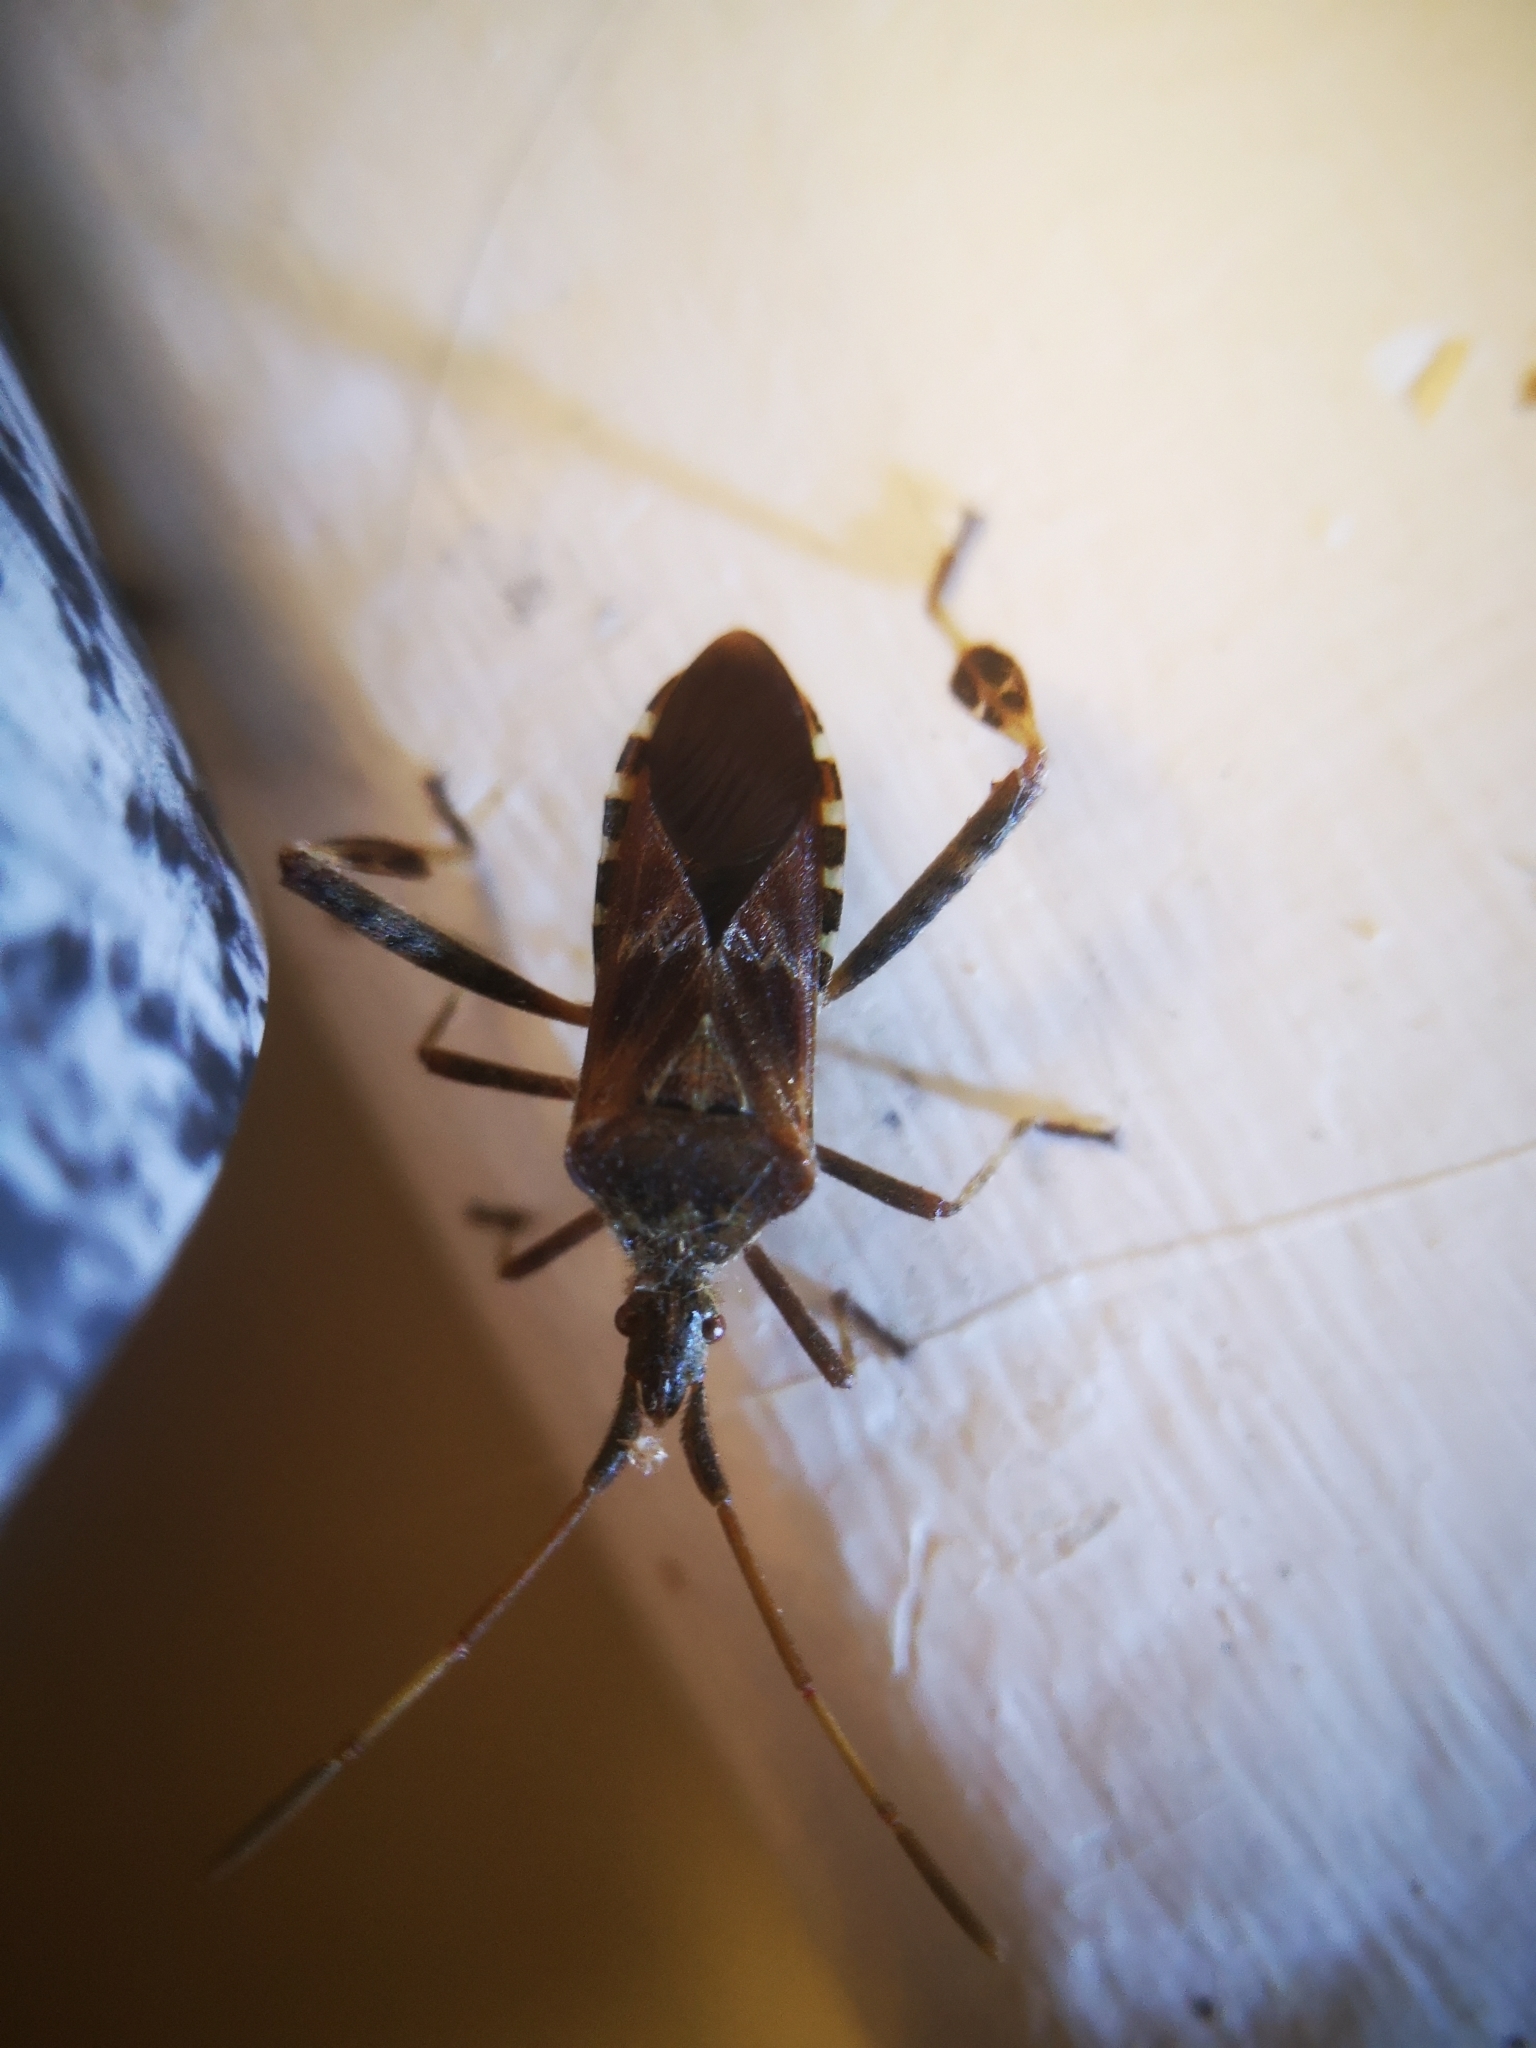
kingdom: Animalia
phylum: Arthropoda
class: Insecta
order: Hemiptera
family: Coreidae
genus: Leptoglossus
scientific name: Leptoglossus occidentalis
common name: Western conifer-seed bug
